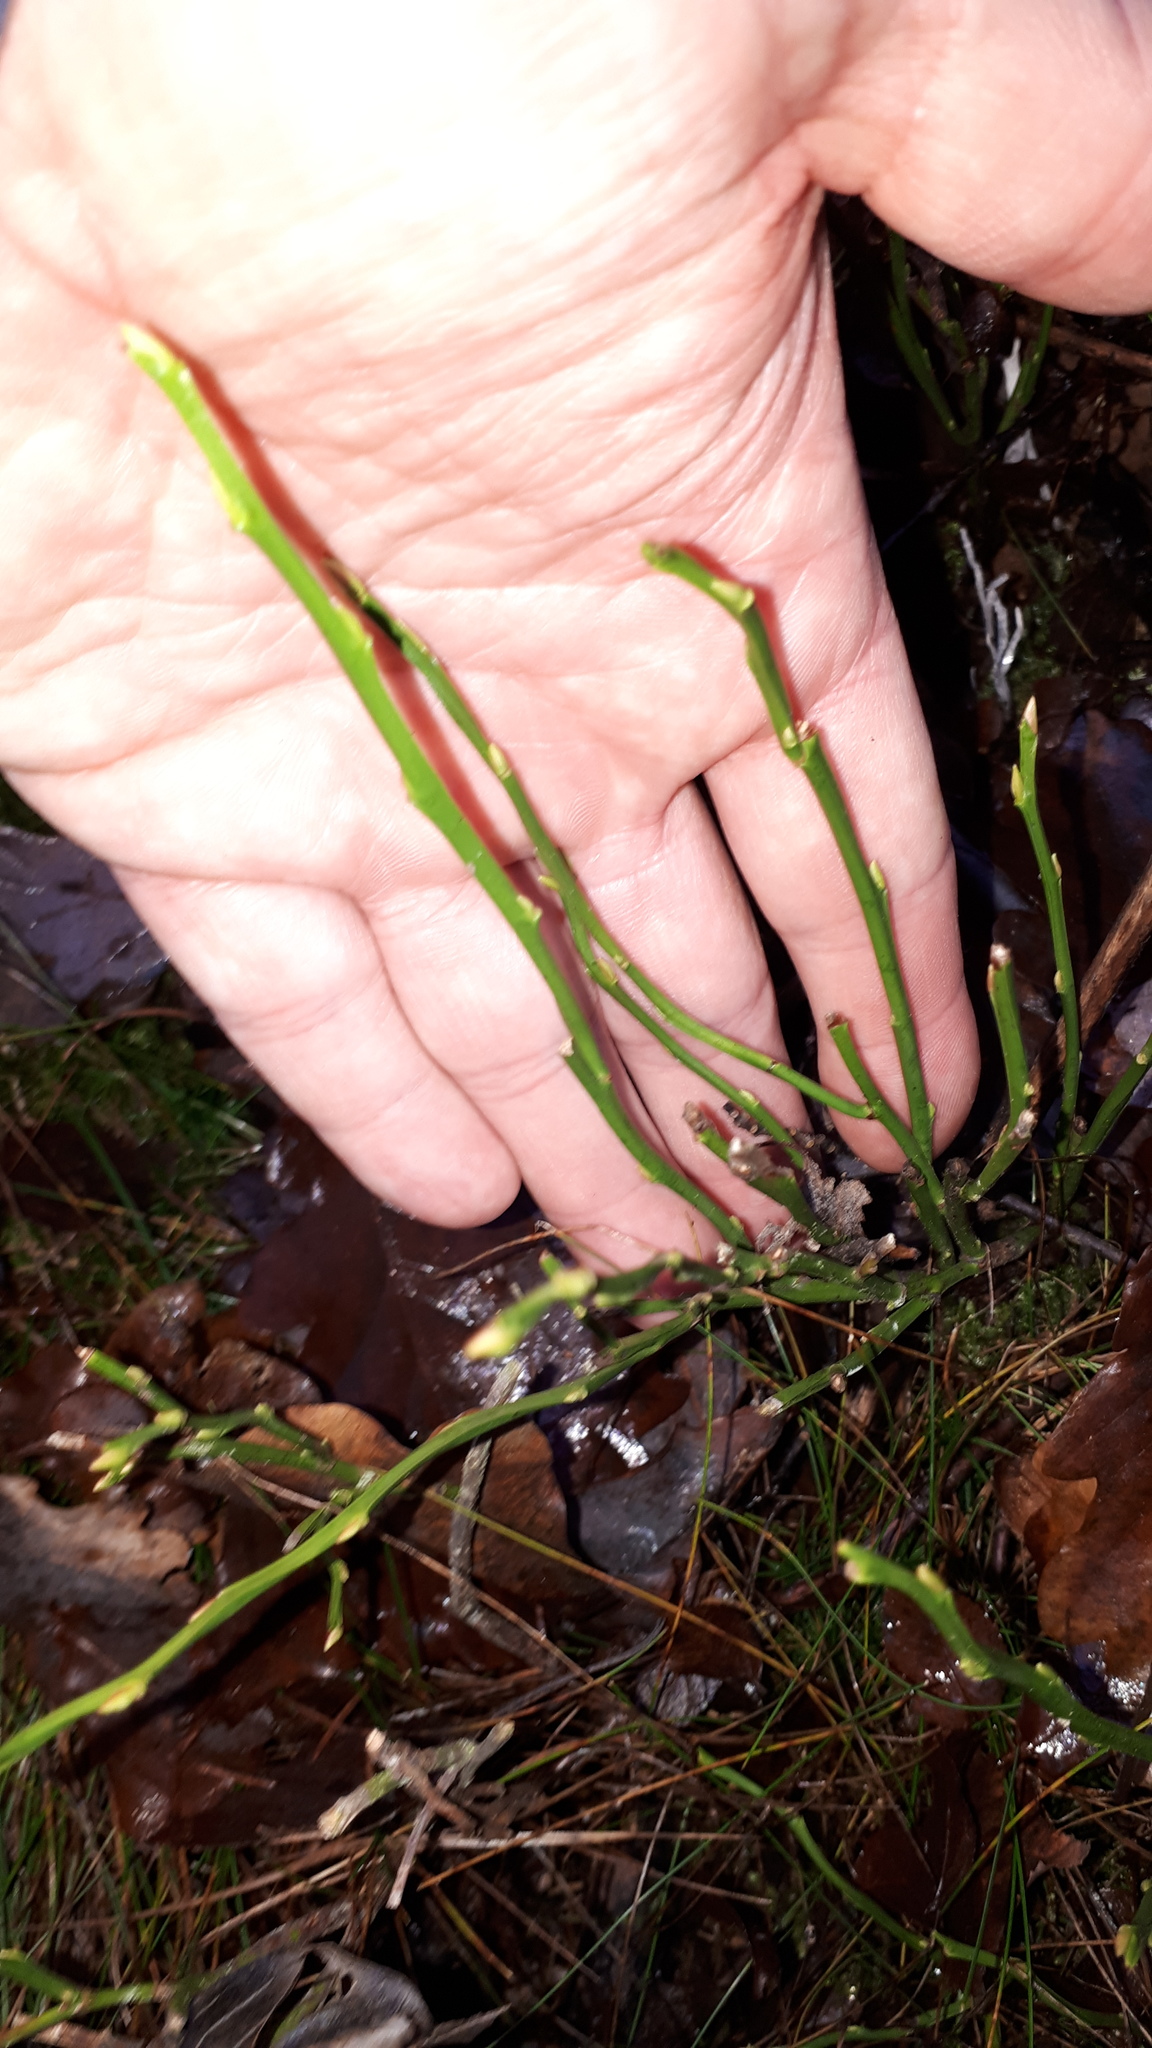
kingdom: Plantae
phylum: Tracheophyta
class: Magnoliopsida
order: Ericales
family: Ericaceae
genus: Vaccinium
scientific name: Vaccinium myrtillus
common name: Bilberry
